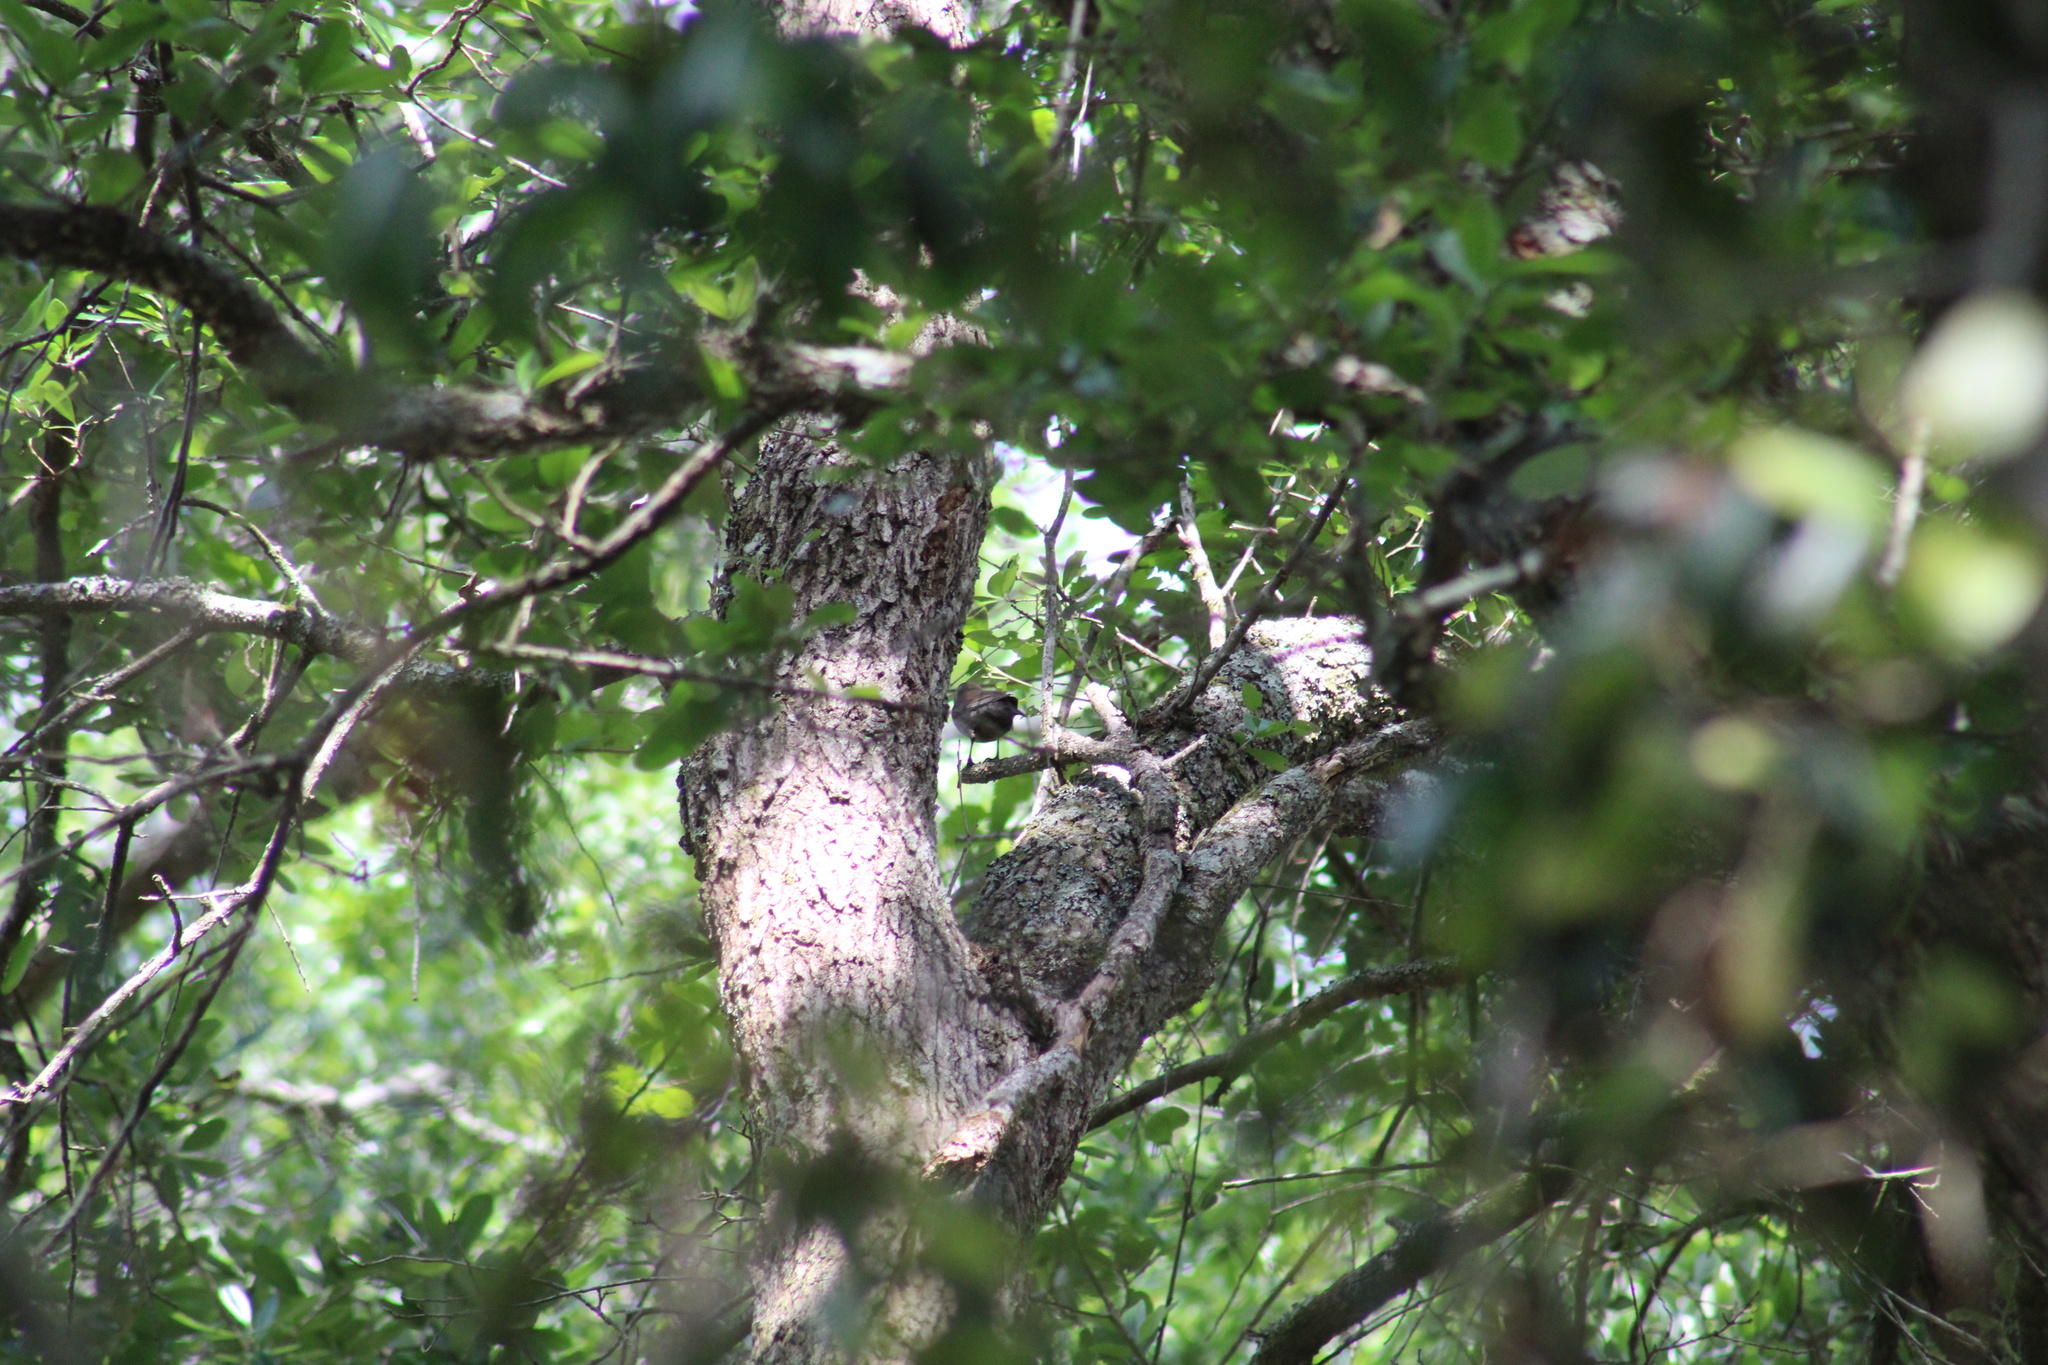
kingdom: Animalia
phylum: Chordata
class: Aves
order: Passeriformes
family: Icteridae
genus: Molothrus
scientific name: Molothrus ater
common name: Brown-headed cowbird
